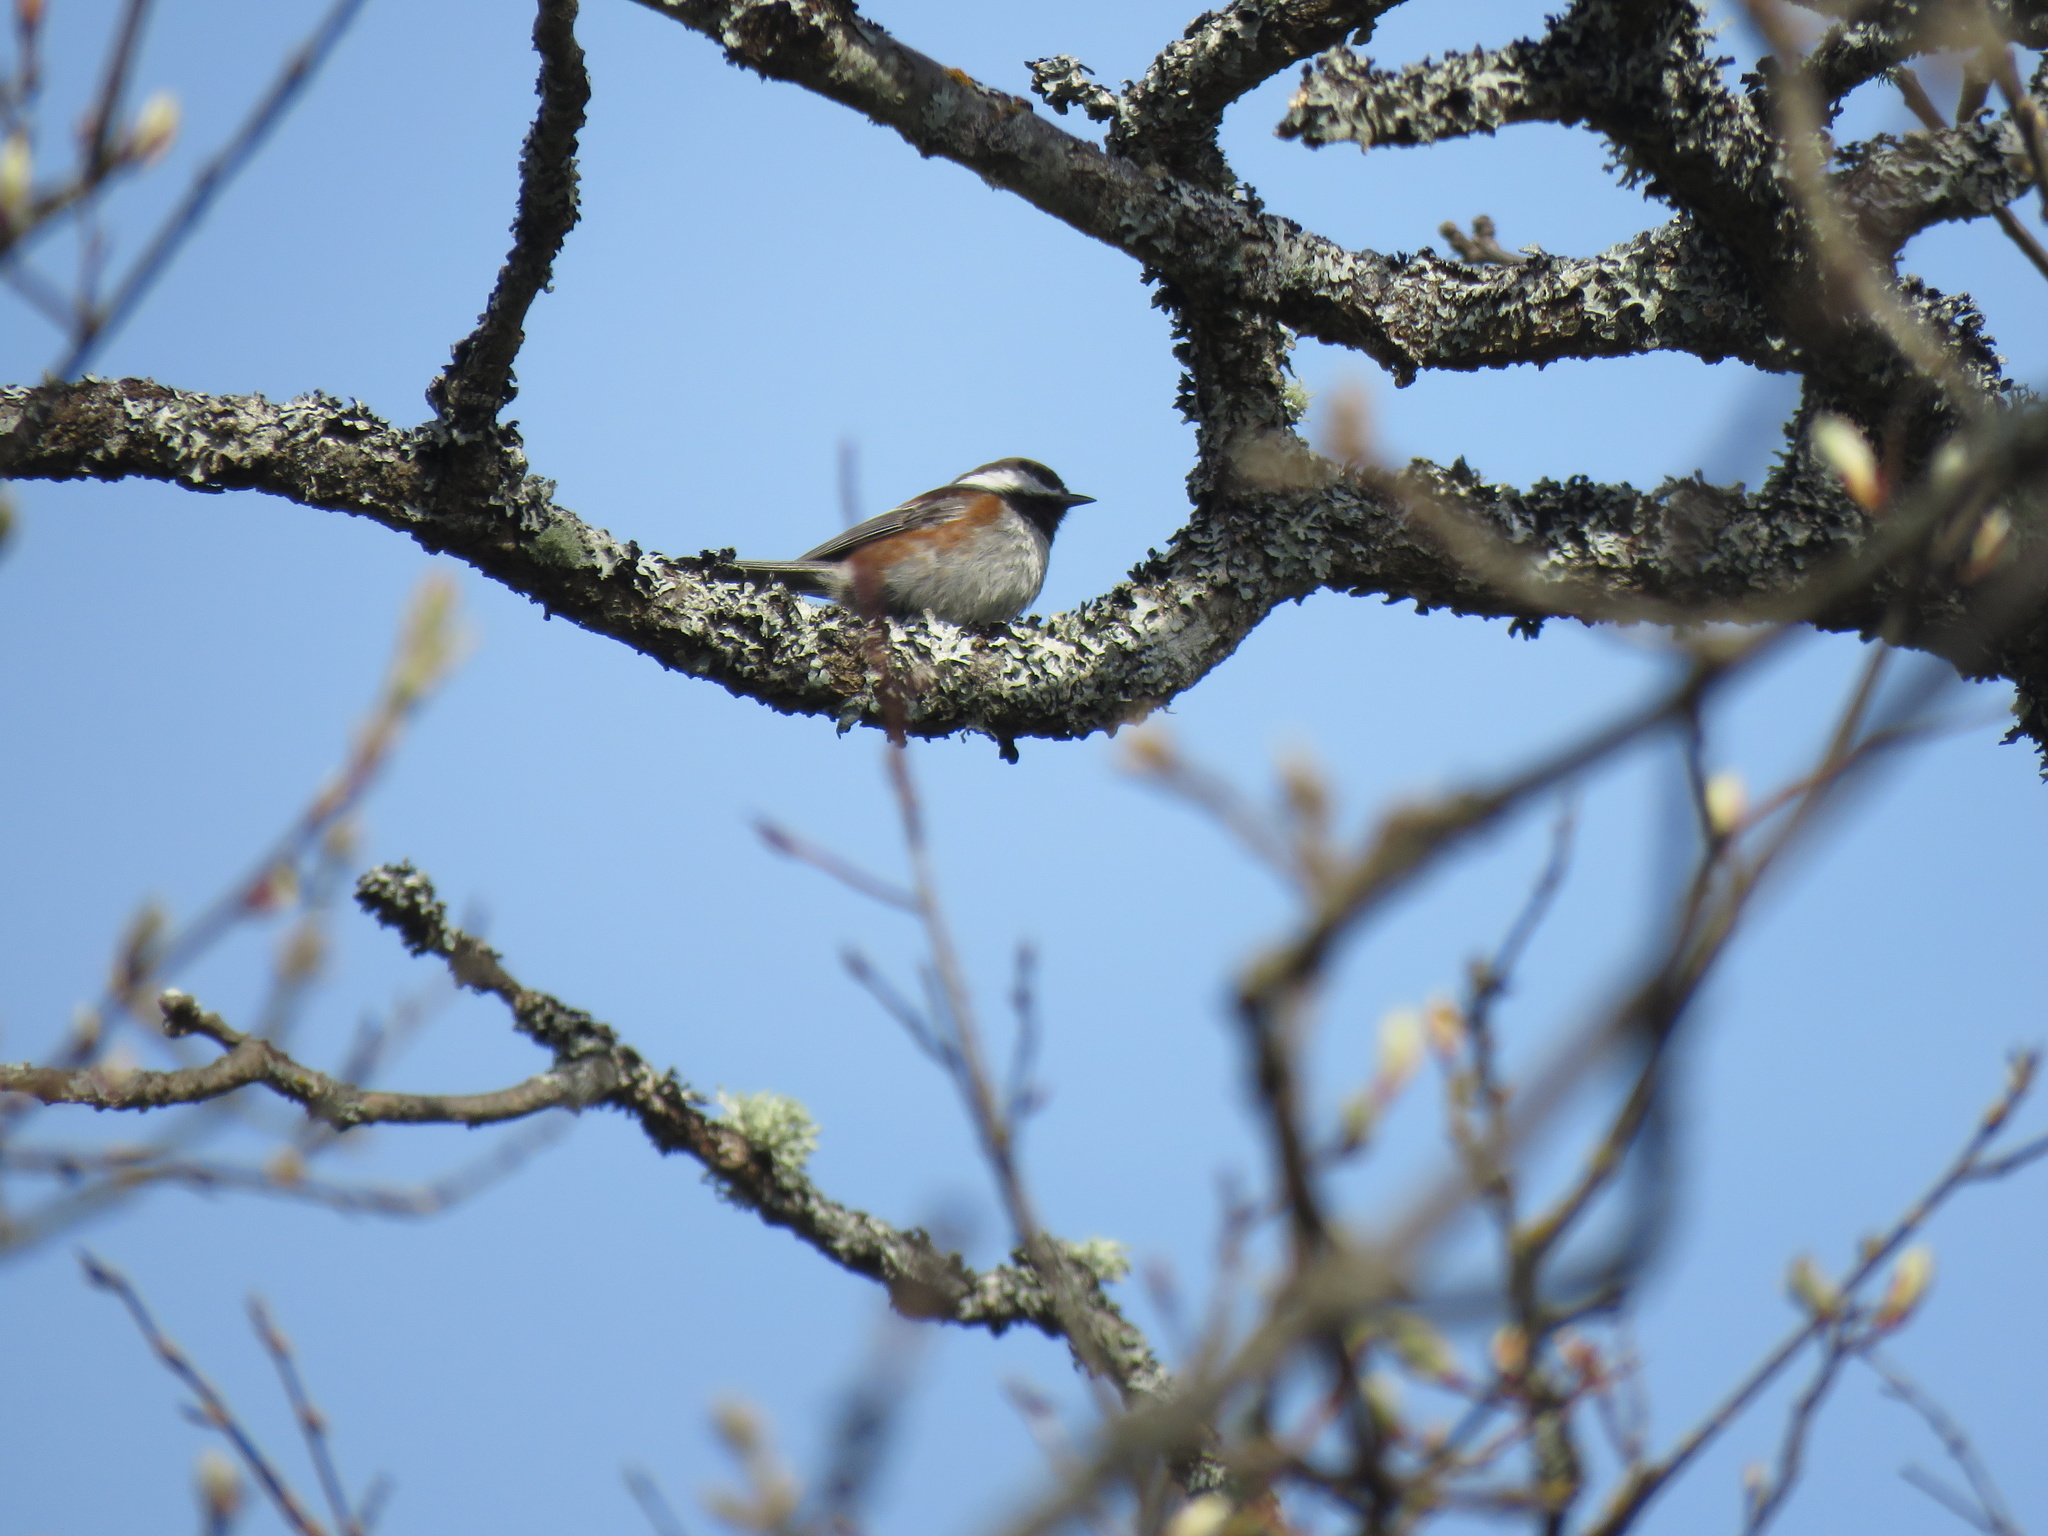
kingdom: Animalia
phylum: Chordata
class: Aves
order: Passeriformes
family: Paridae
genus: Poecile
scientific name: Poecile rufescens
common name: Chestnut-backed chickadee
